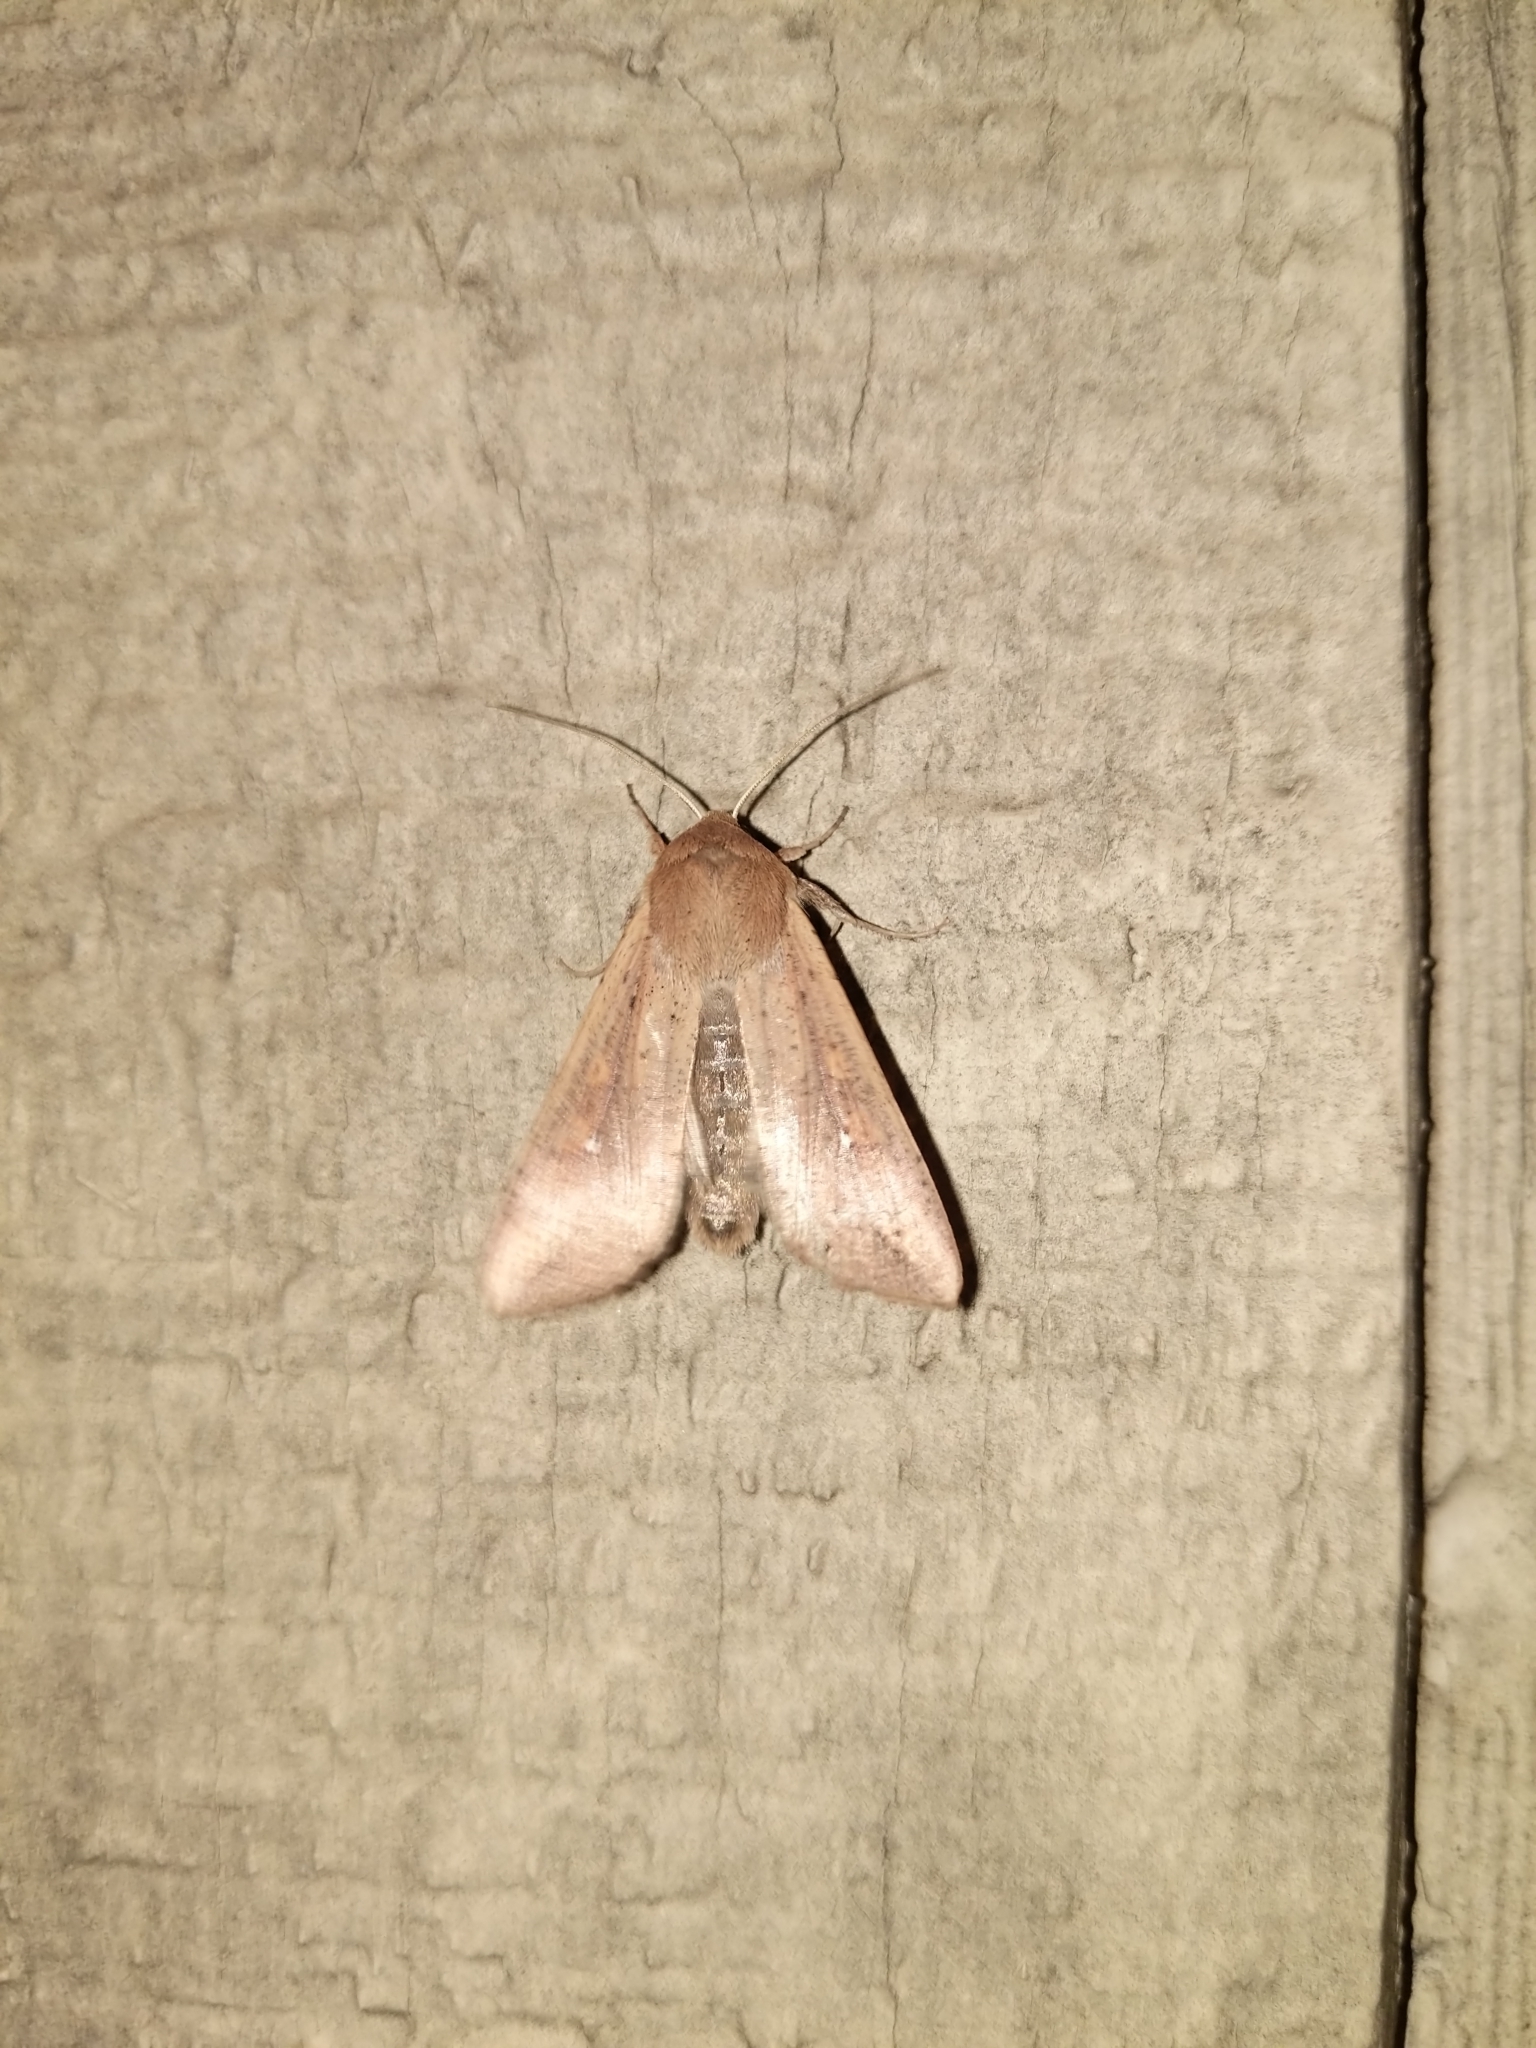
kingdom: Animalia
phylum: Arthropoda
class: Insecta
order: Lepidoptera
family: Noctuidae
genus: Mythimna
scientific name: Mythimna unipuncta
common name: White-speck
